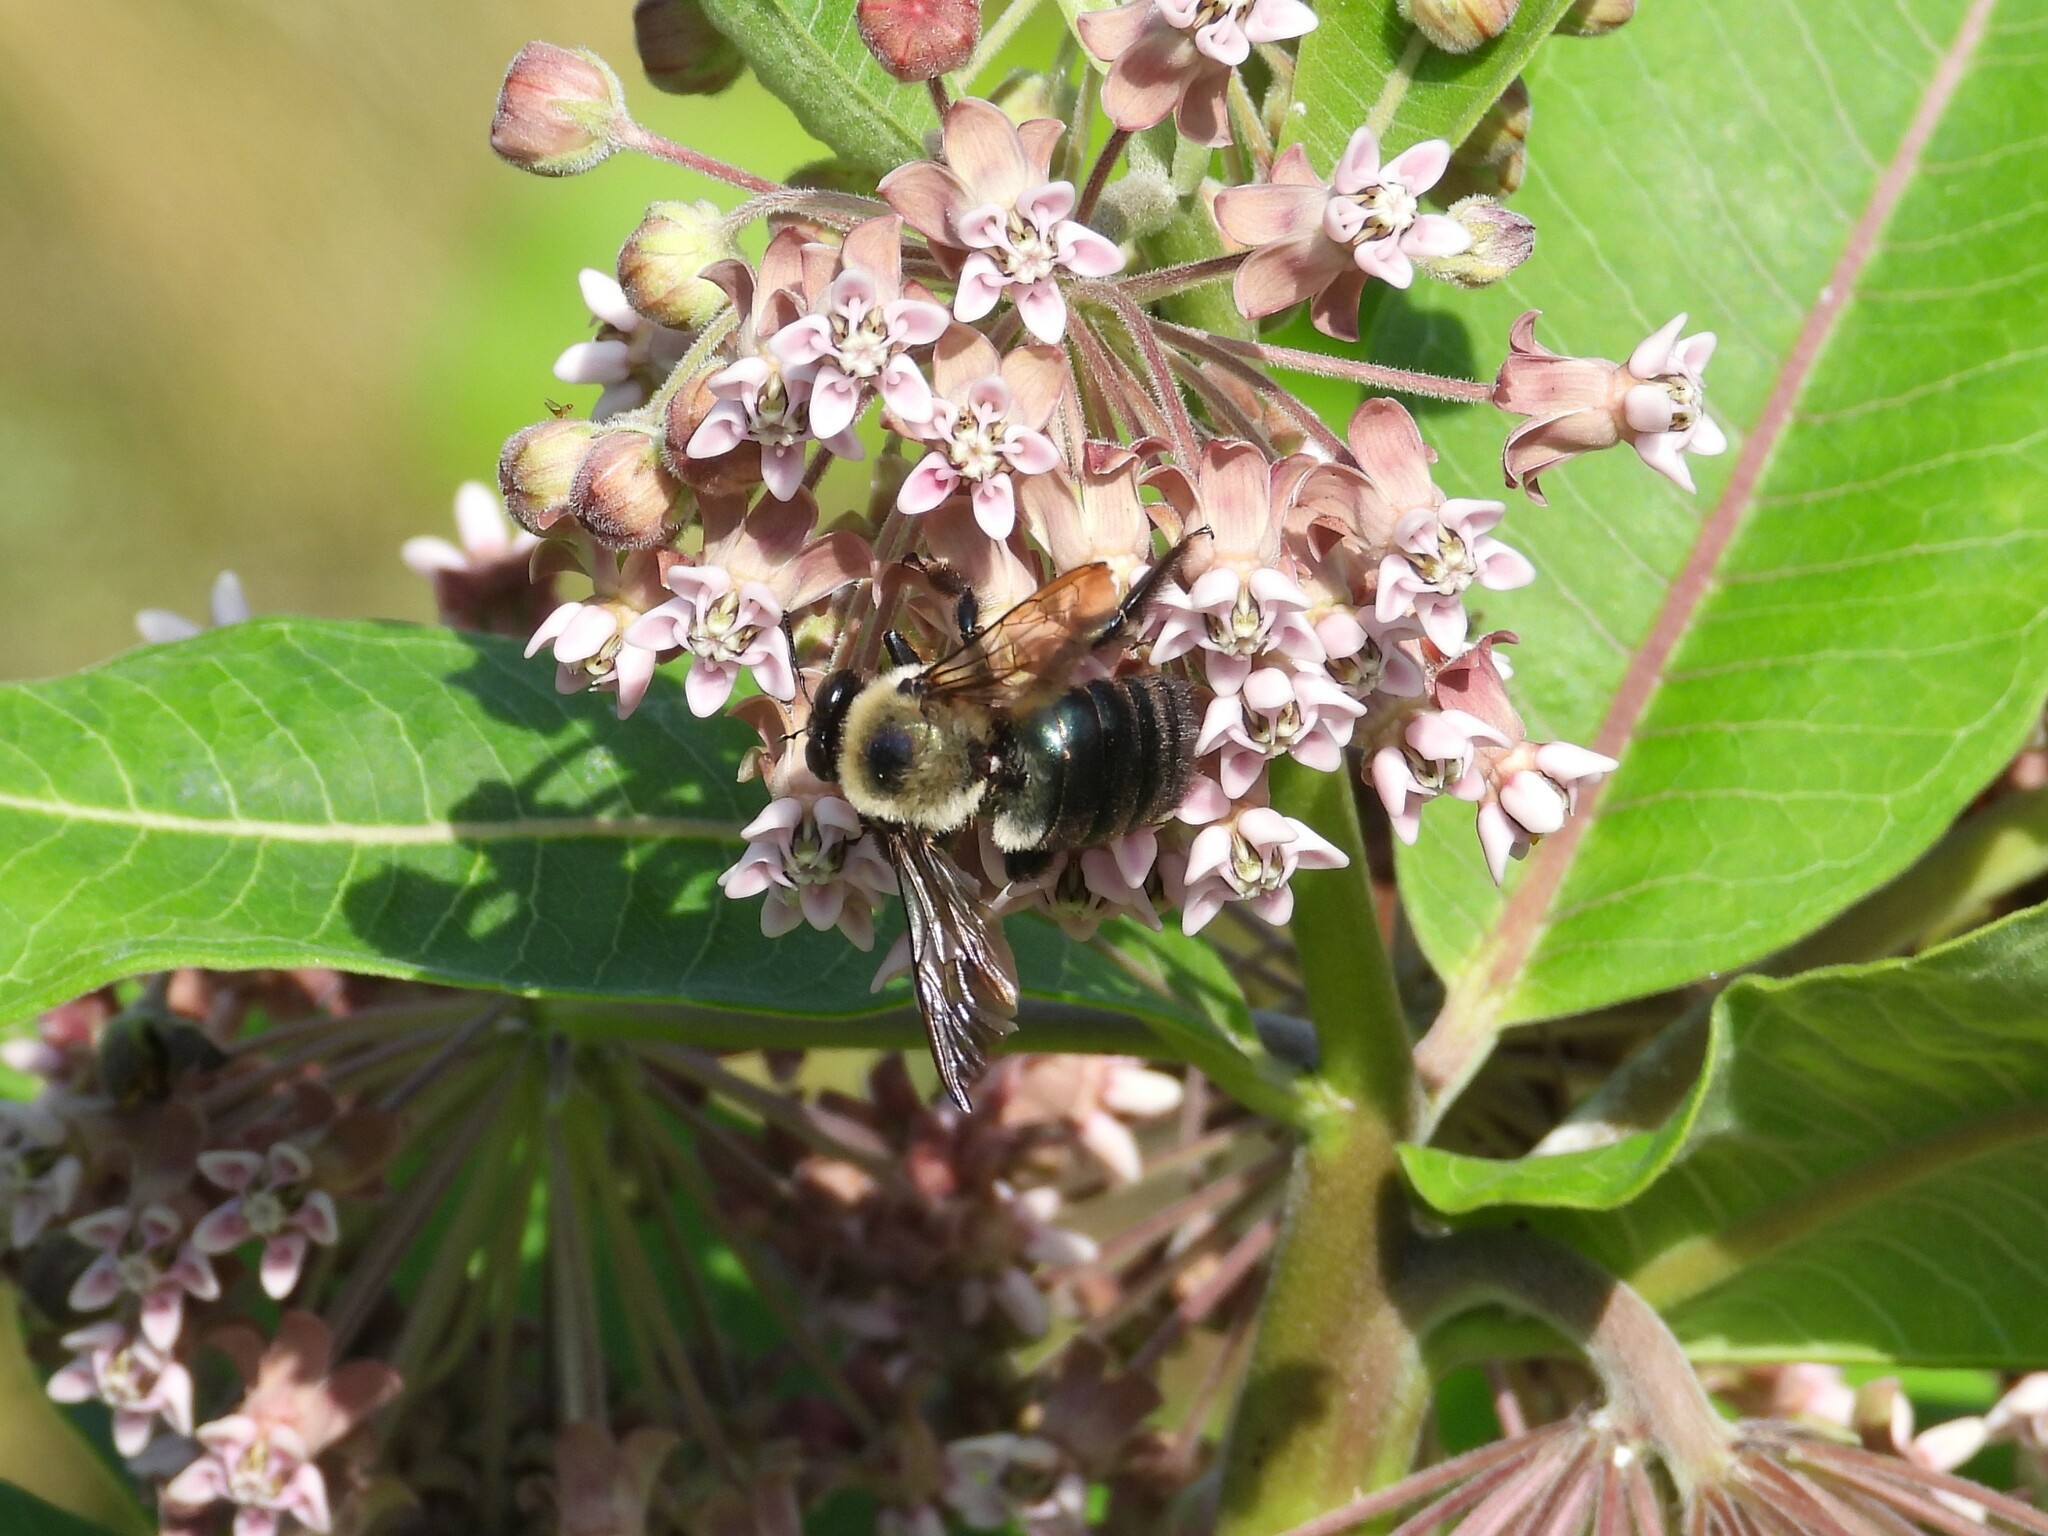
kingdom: Animalia
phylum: Arthropoda
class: Insecta
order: Hymenoptera
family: Apidae
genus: Xylocopa
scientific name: Xylocopa virginica
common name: Carpenter bee
